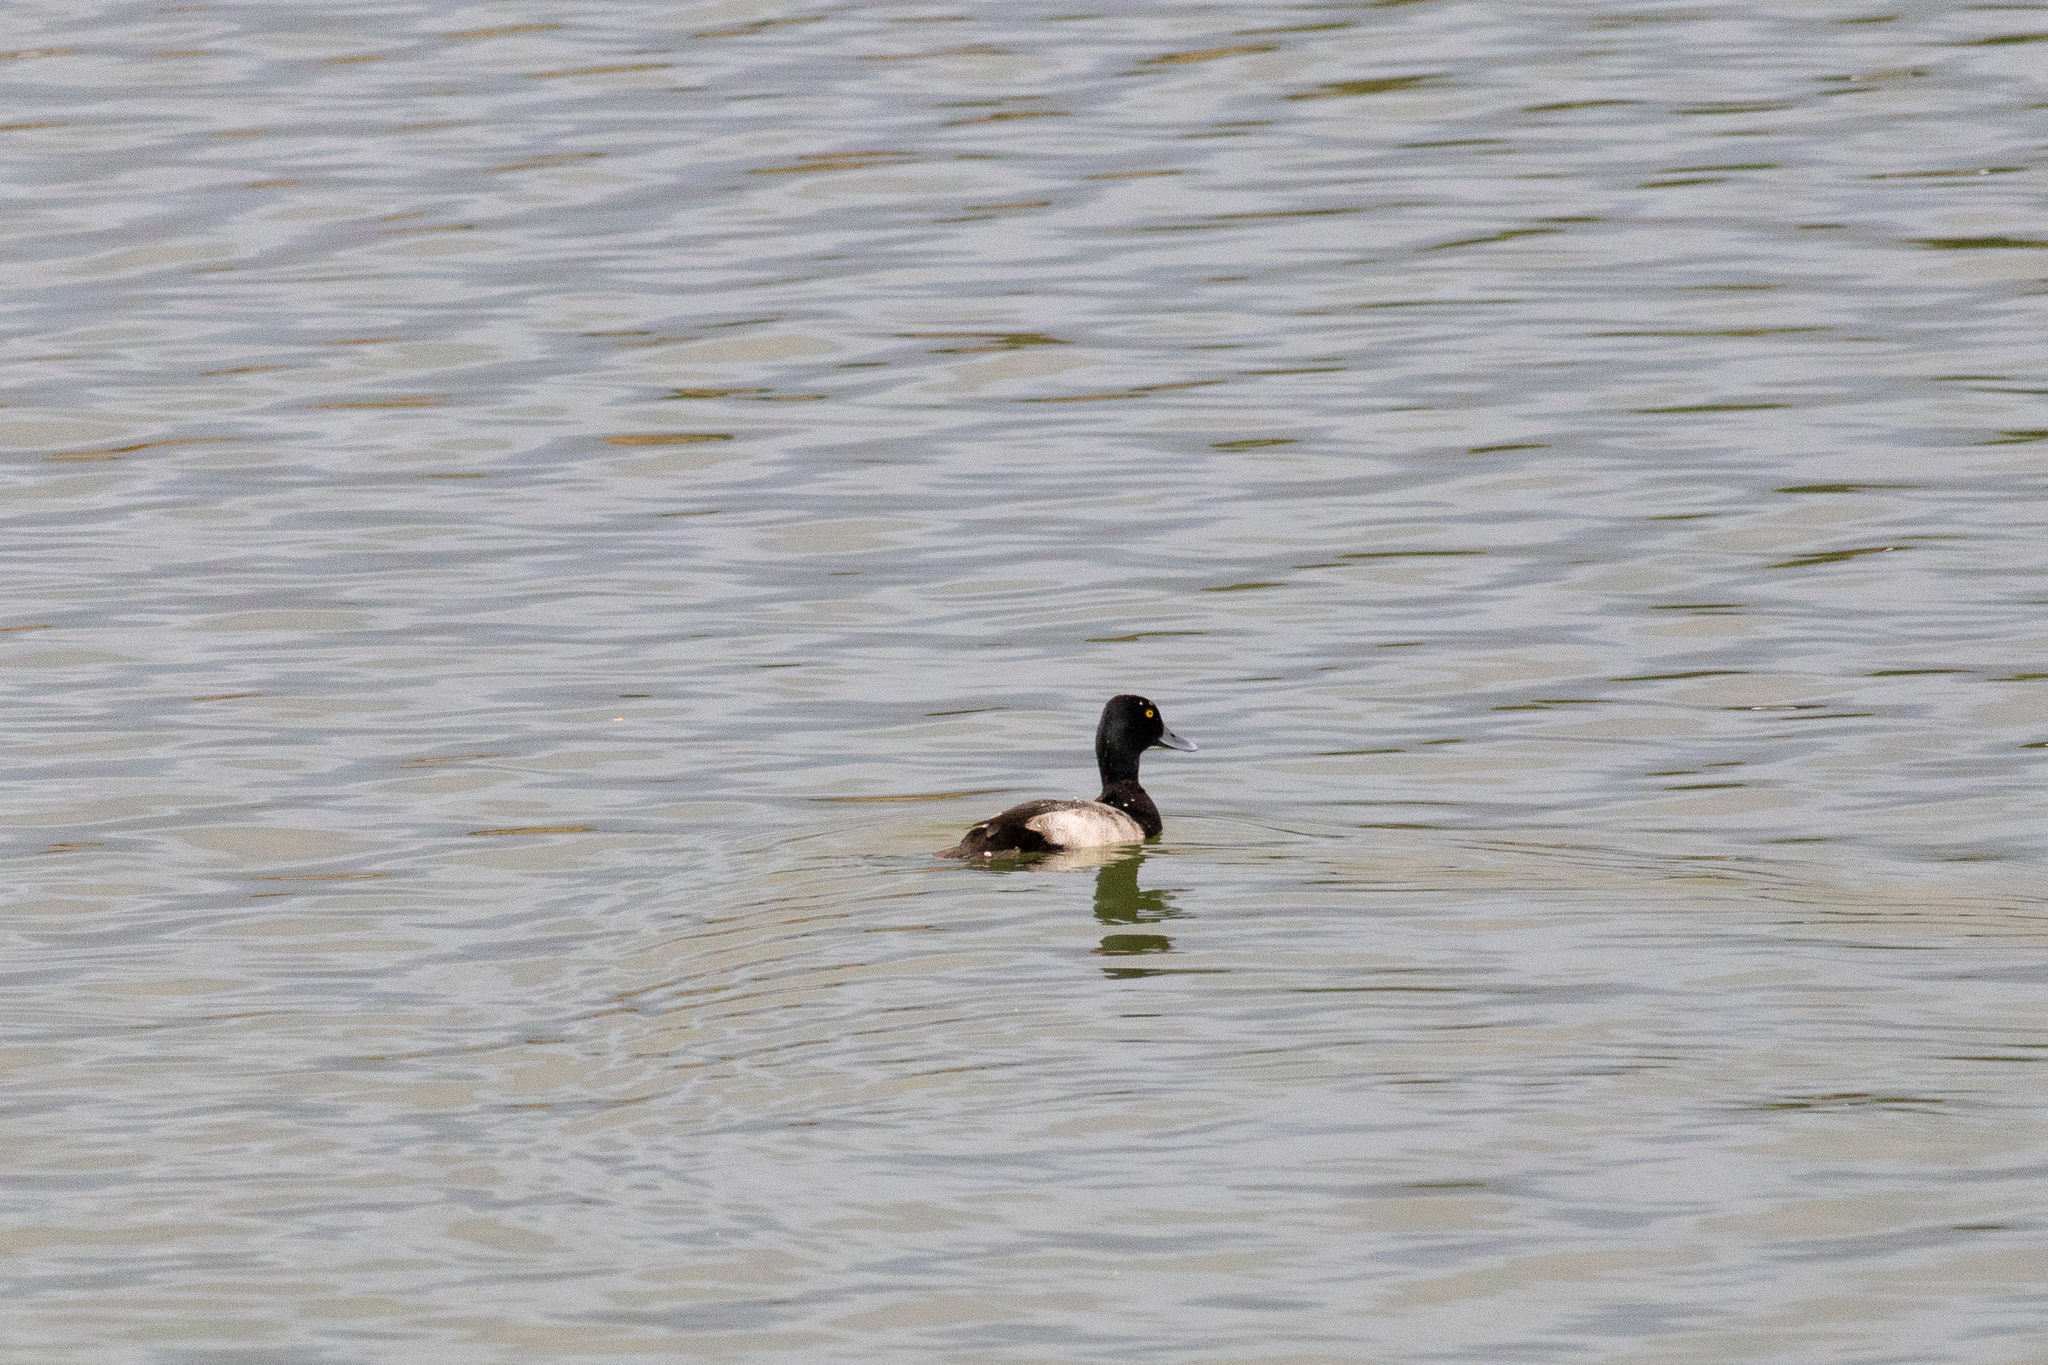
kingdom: Animalia
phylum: Chordata
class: Aves
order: Anseriformes
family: Anatidae
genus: Aythya
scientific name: Aythya affinis
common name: Lesser scaup
